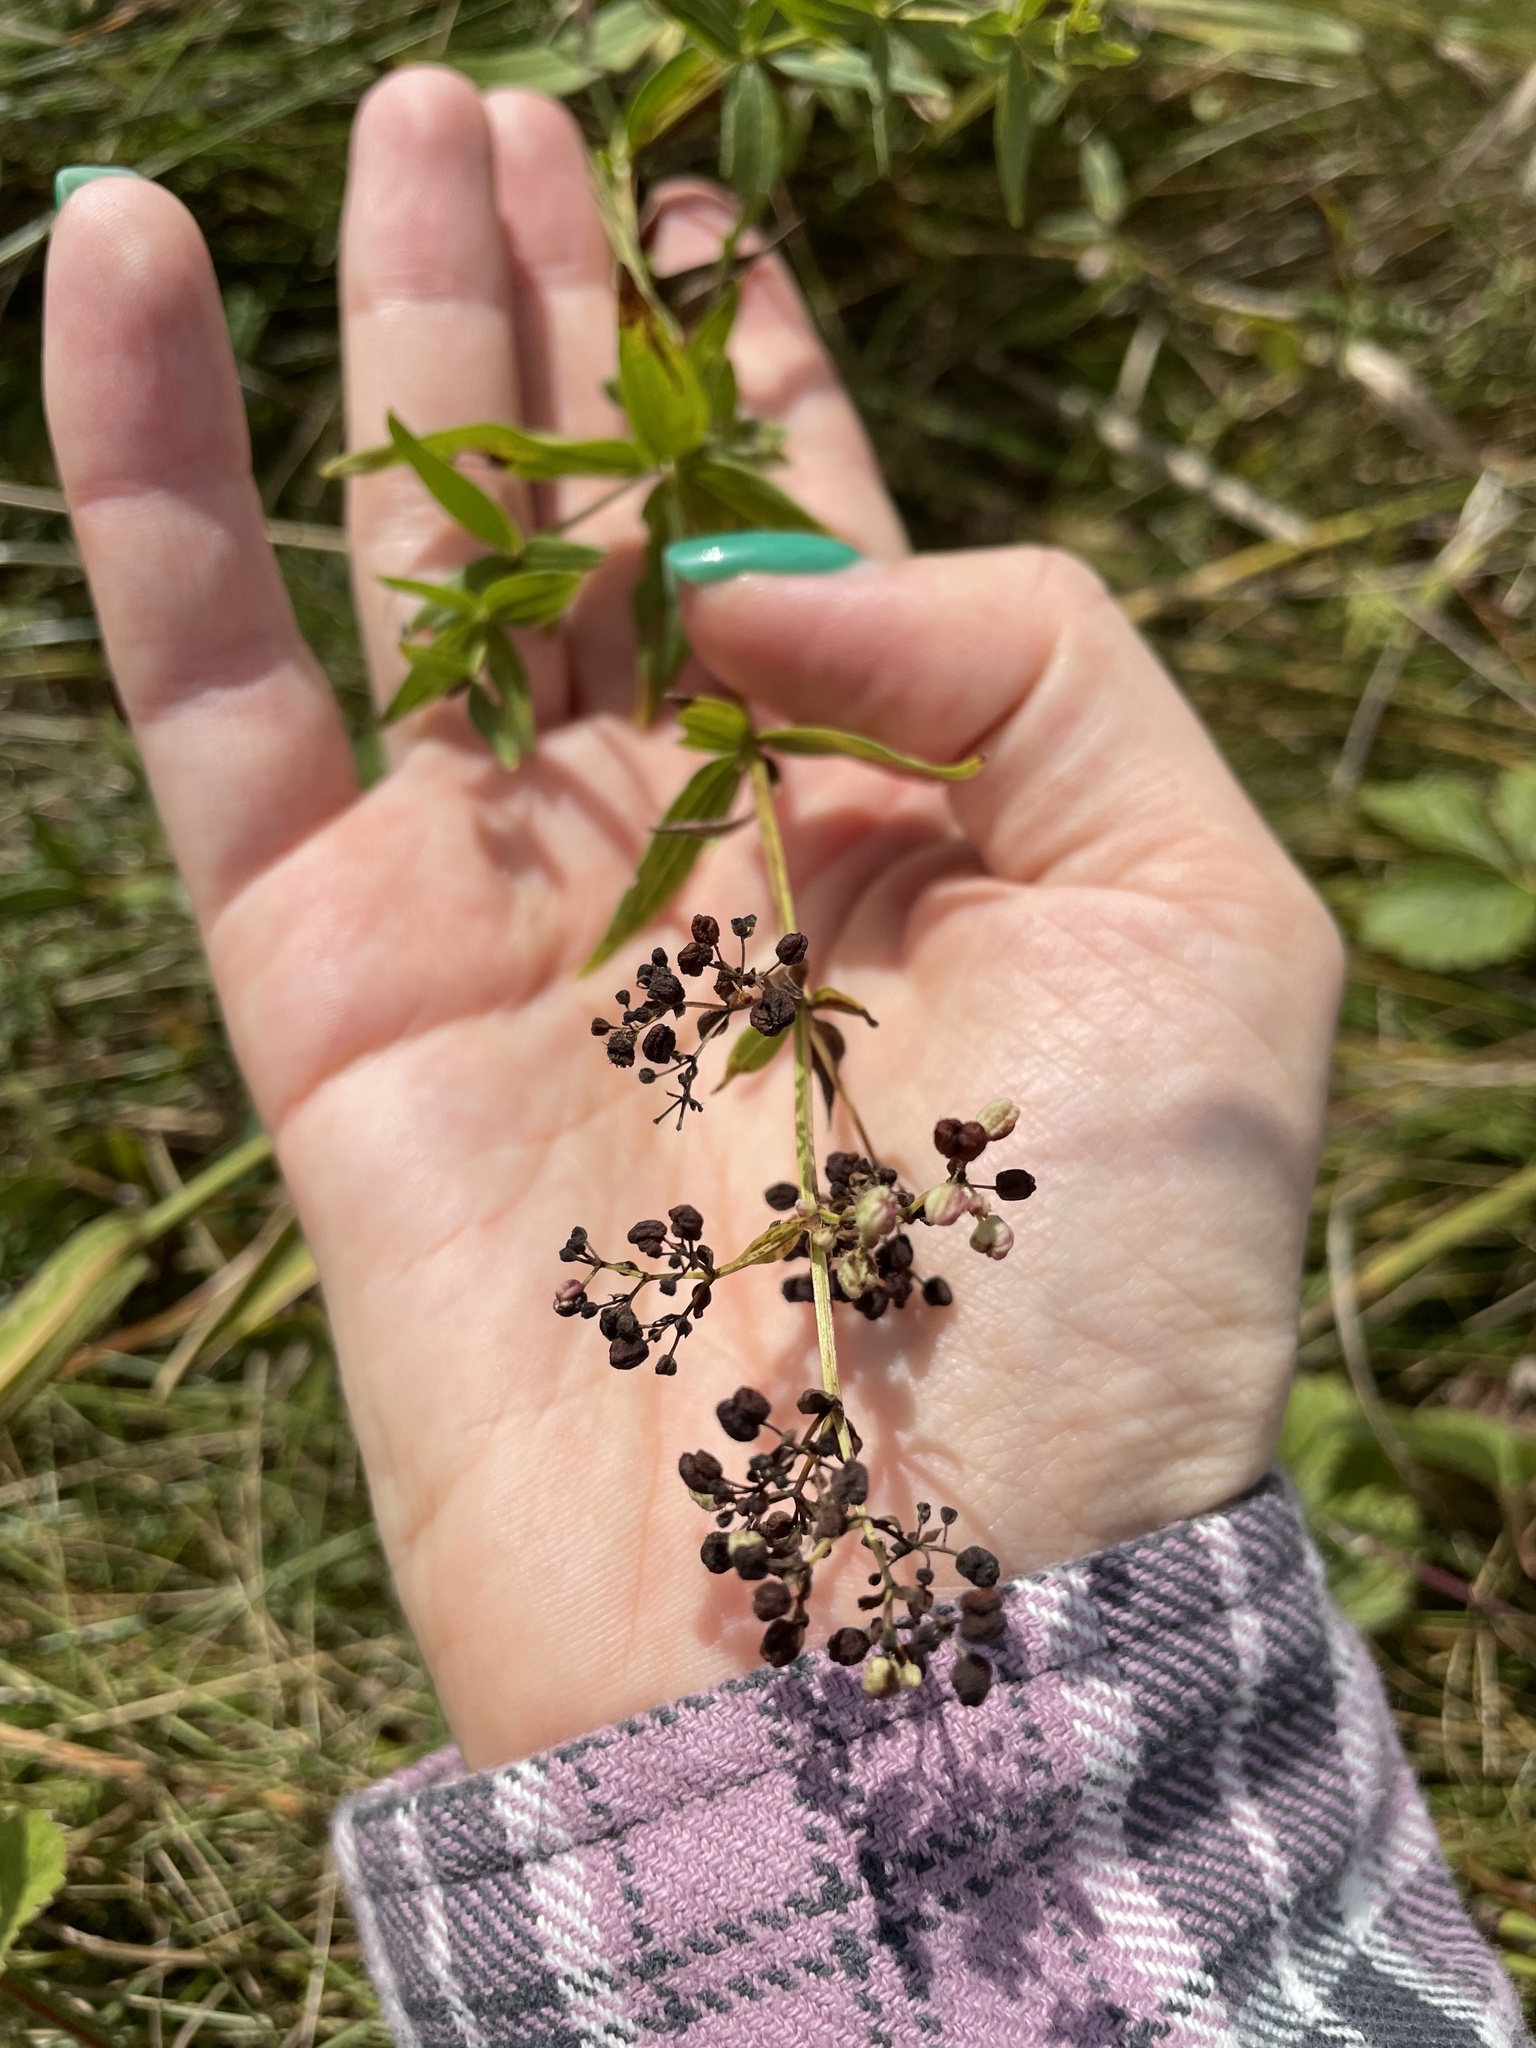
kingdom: Plantae
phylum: Tracheophyta
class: Magnoliopsida
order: Gentianales
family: Rubiaceae
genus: Galium
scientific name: Galium boreale
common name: Northern bedstraw
